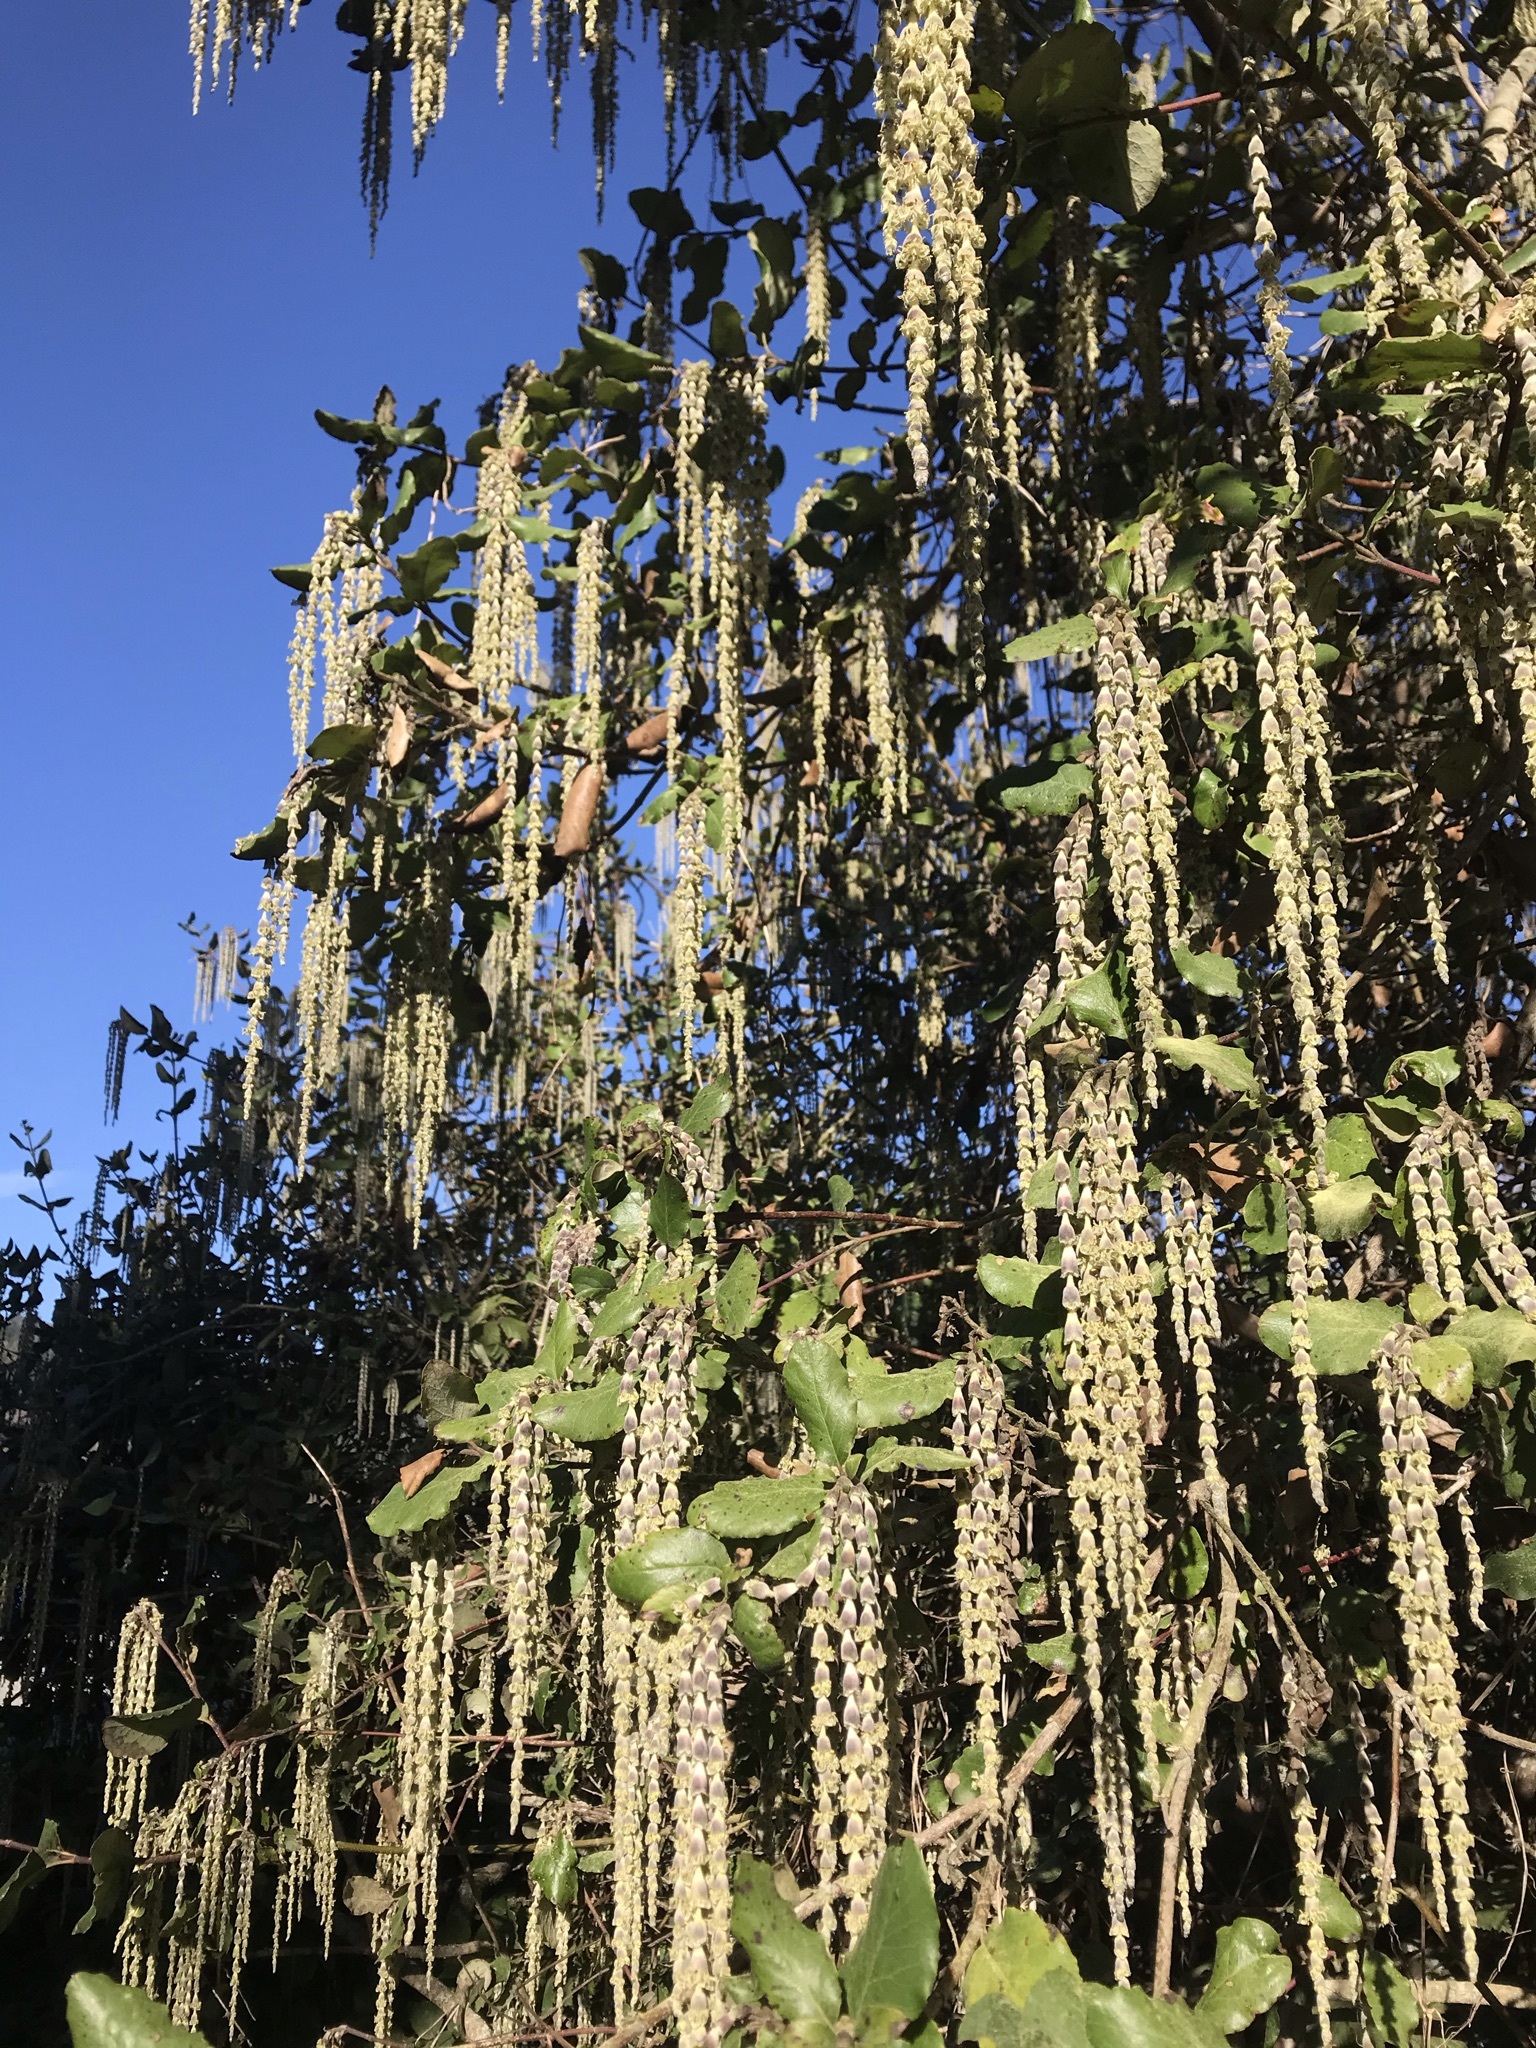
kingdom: Plantae
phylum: Tracheophyta
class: Magnoliopsida
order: Garryales
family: Garryaceae
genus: Garrya
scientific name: Garrya elliptica
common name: Silk-tassel
